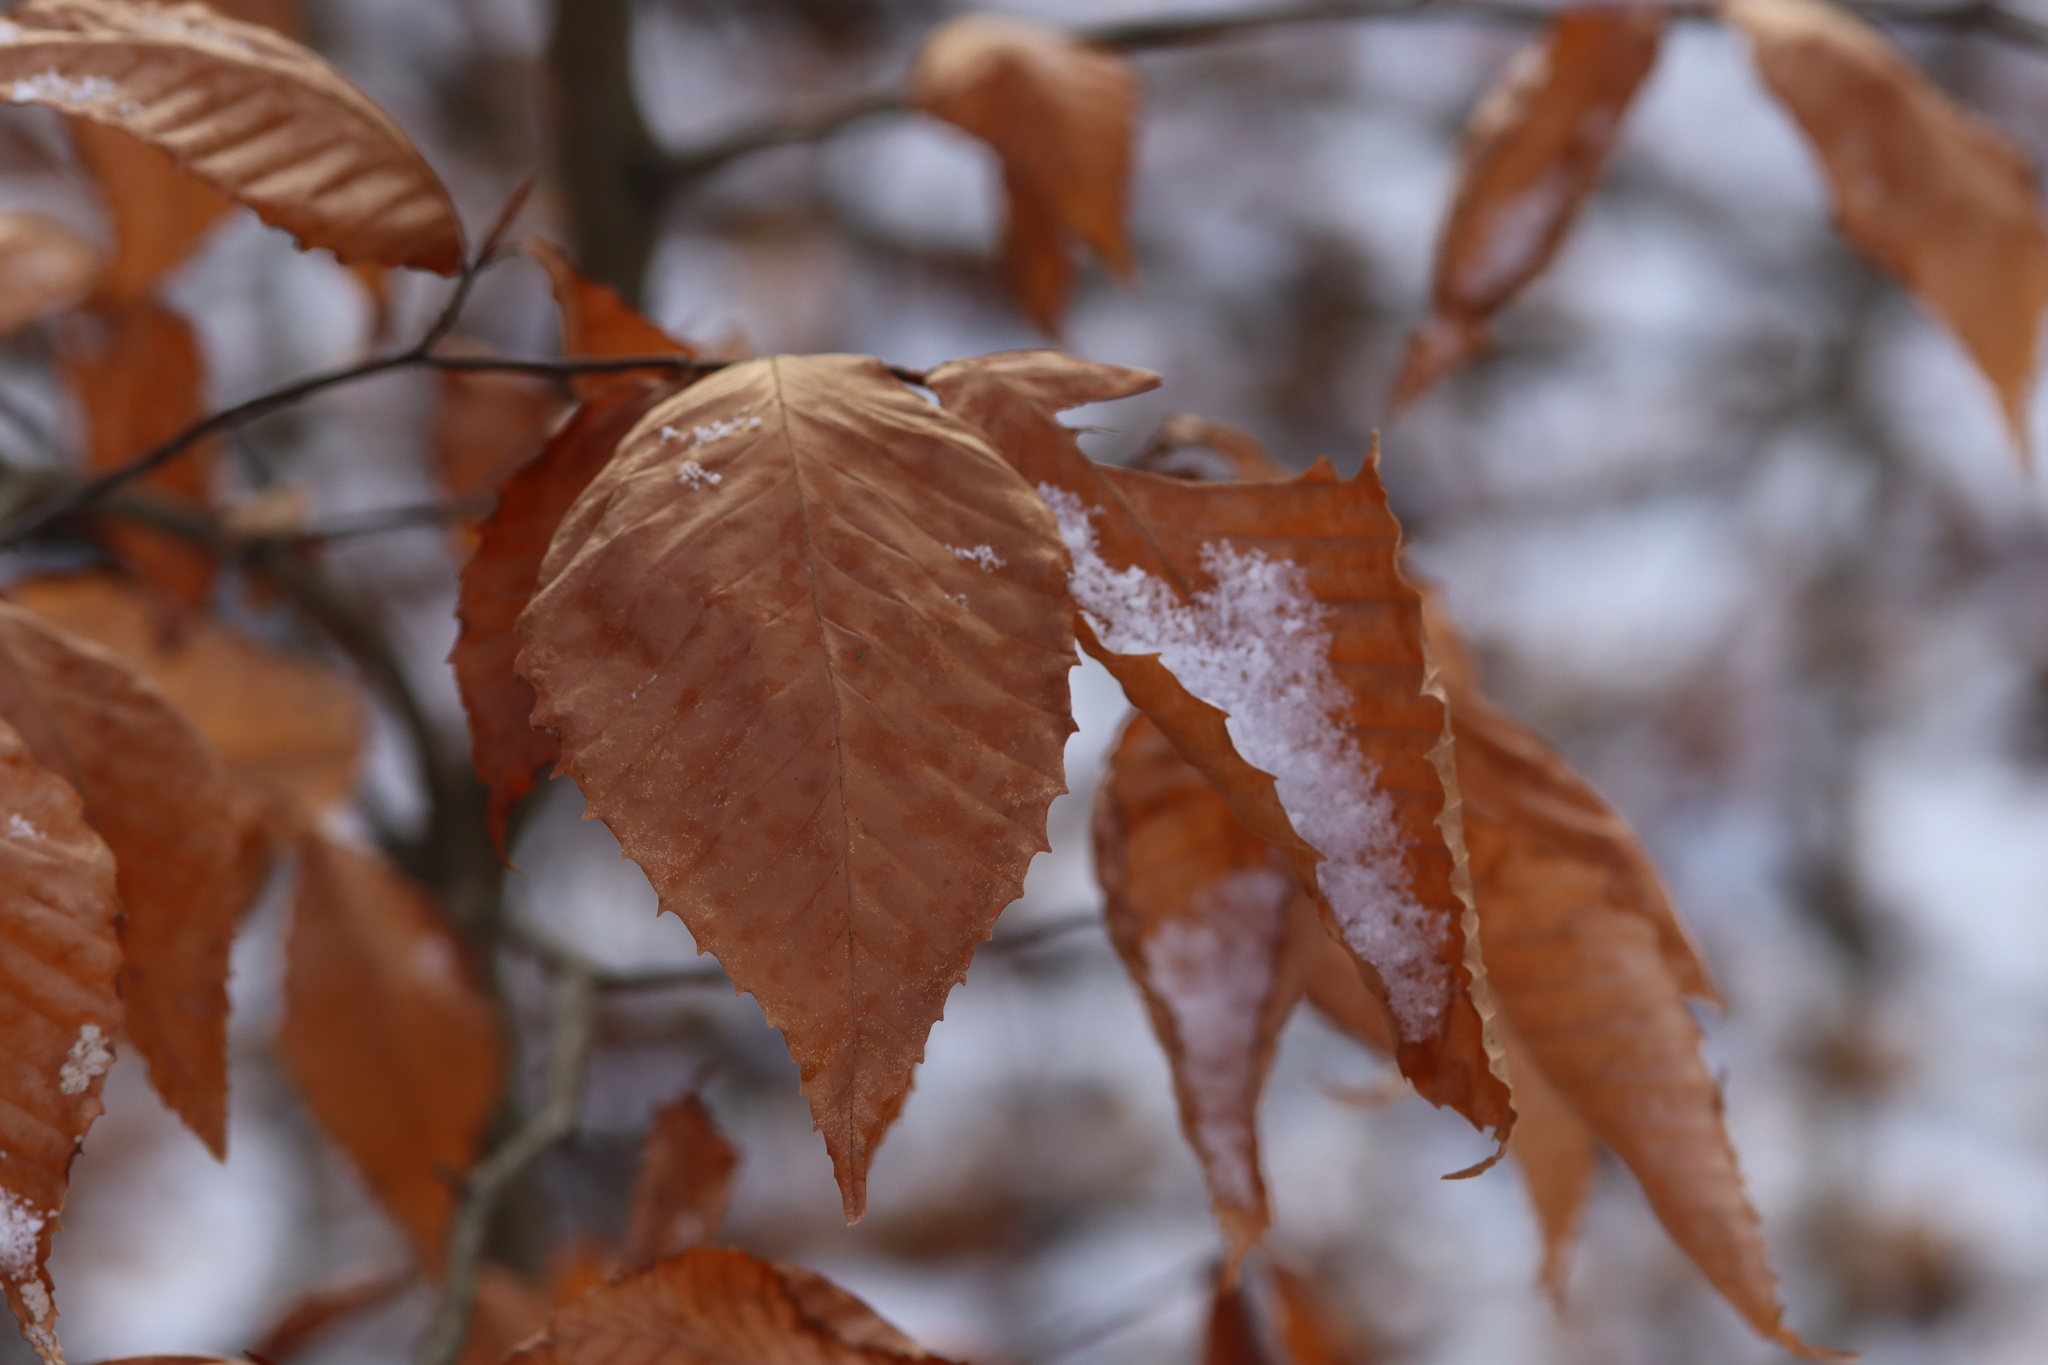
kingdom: Plantae
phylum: Tracheophyta
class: Magnoliopsida
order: Fagales
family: Fagaceae
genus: Fagus
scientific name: Fagus grandifolia
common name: American beech
